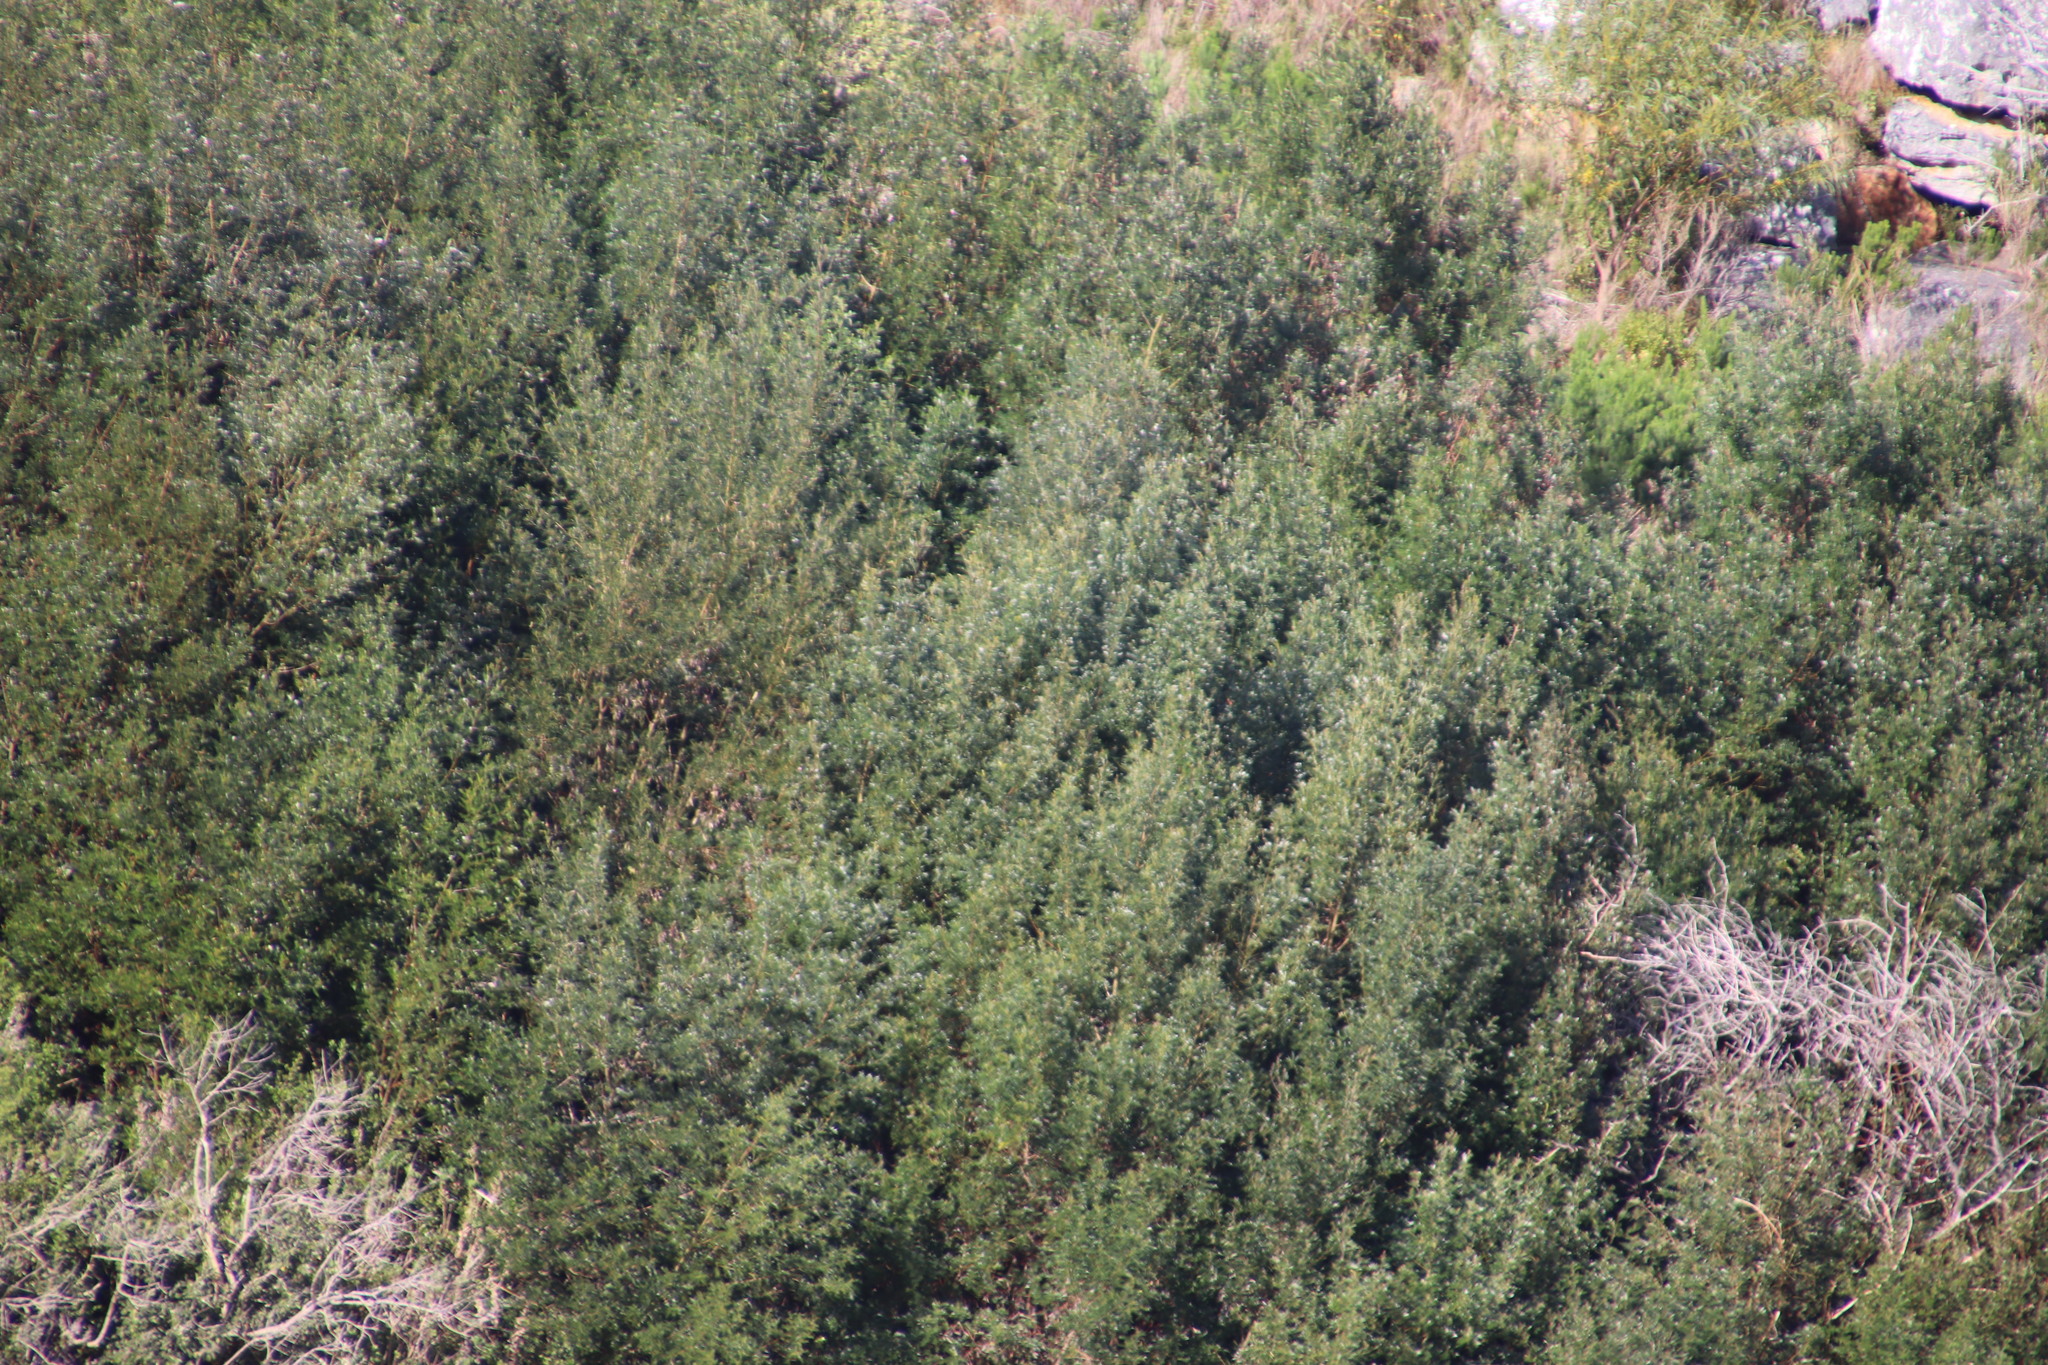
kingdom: Plantae
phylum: Tracheophyta
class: Magnoliopsida
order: Fabales
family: Fabaceae
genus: Virgilia
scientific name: Virgilia oroboides
